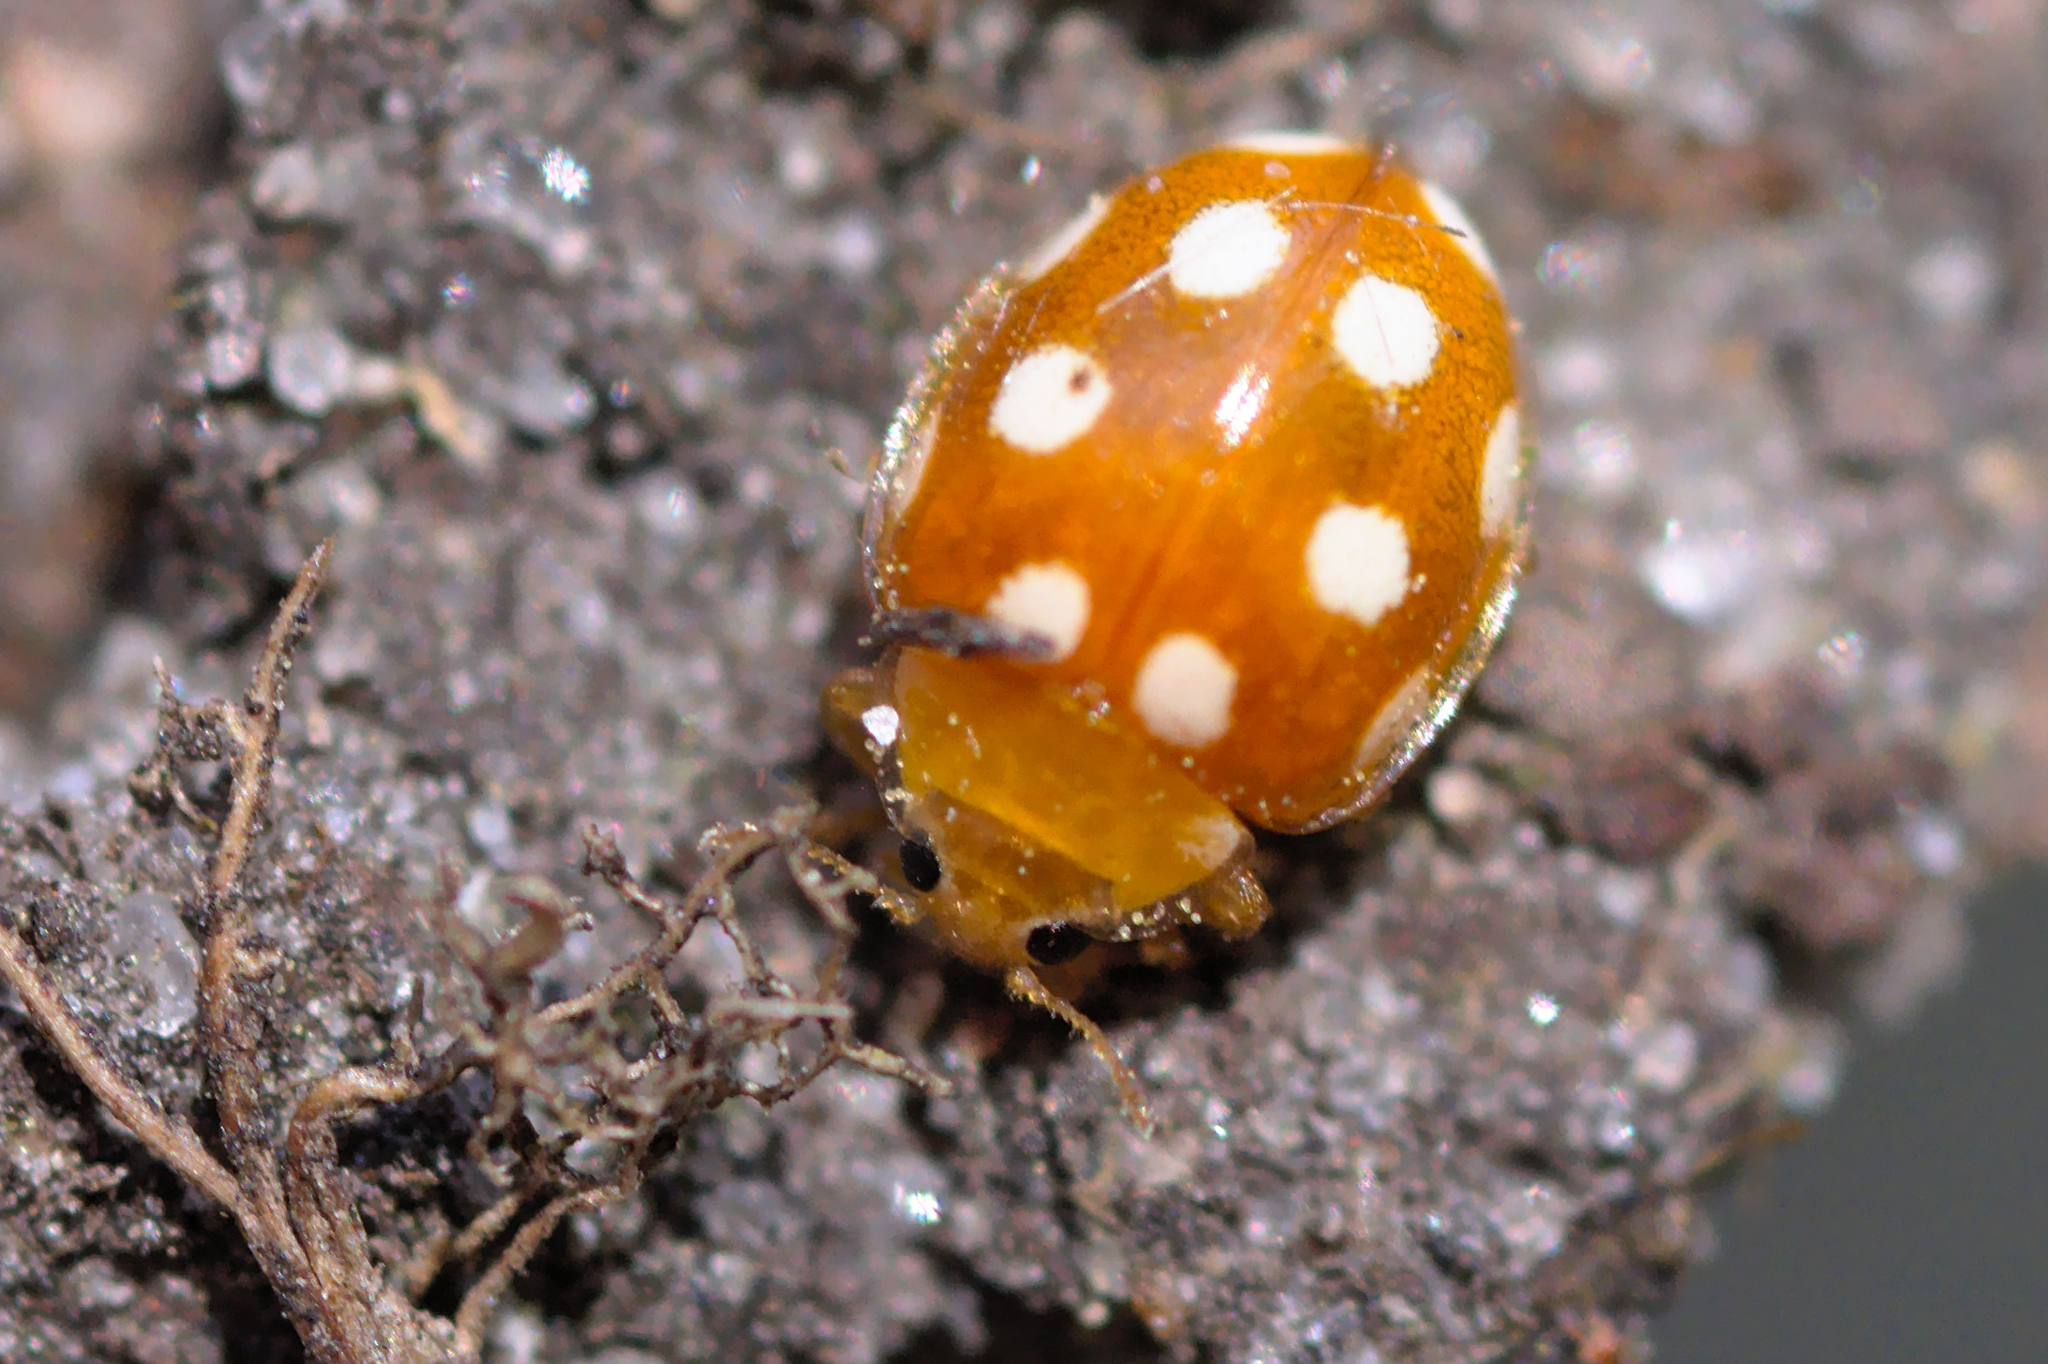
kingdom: Animalia
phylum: Arthropoda
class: Insecta
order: Coleoptera
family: Coccinellidae
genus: Vibidia
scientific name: Vibidia duodecimguttata
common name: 12-spot ladybird
